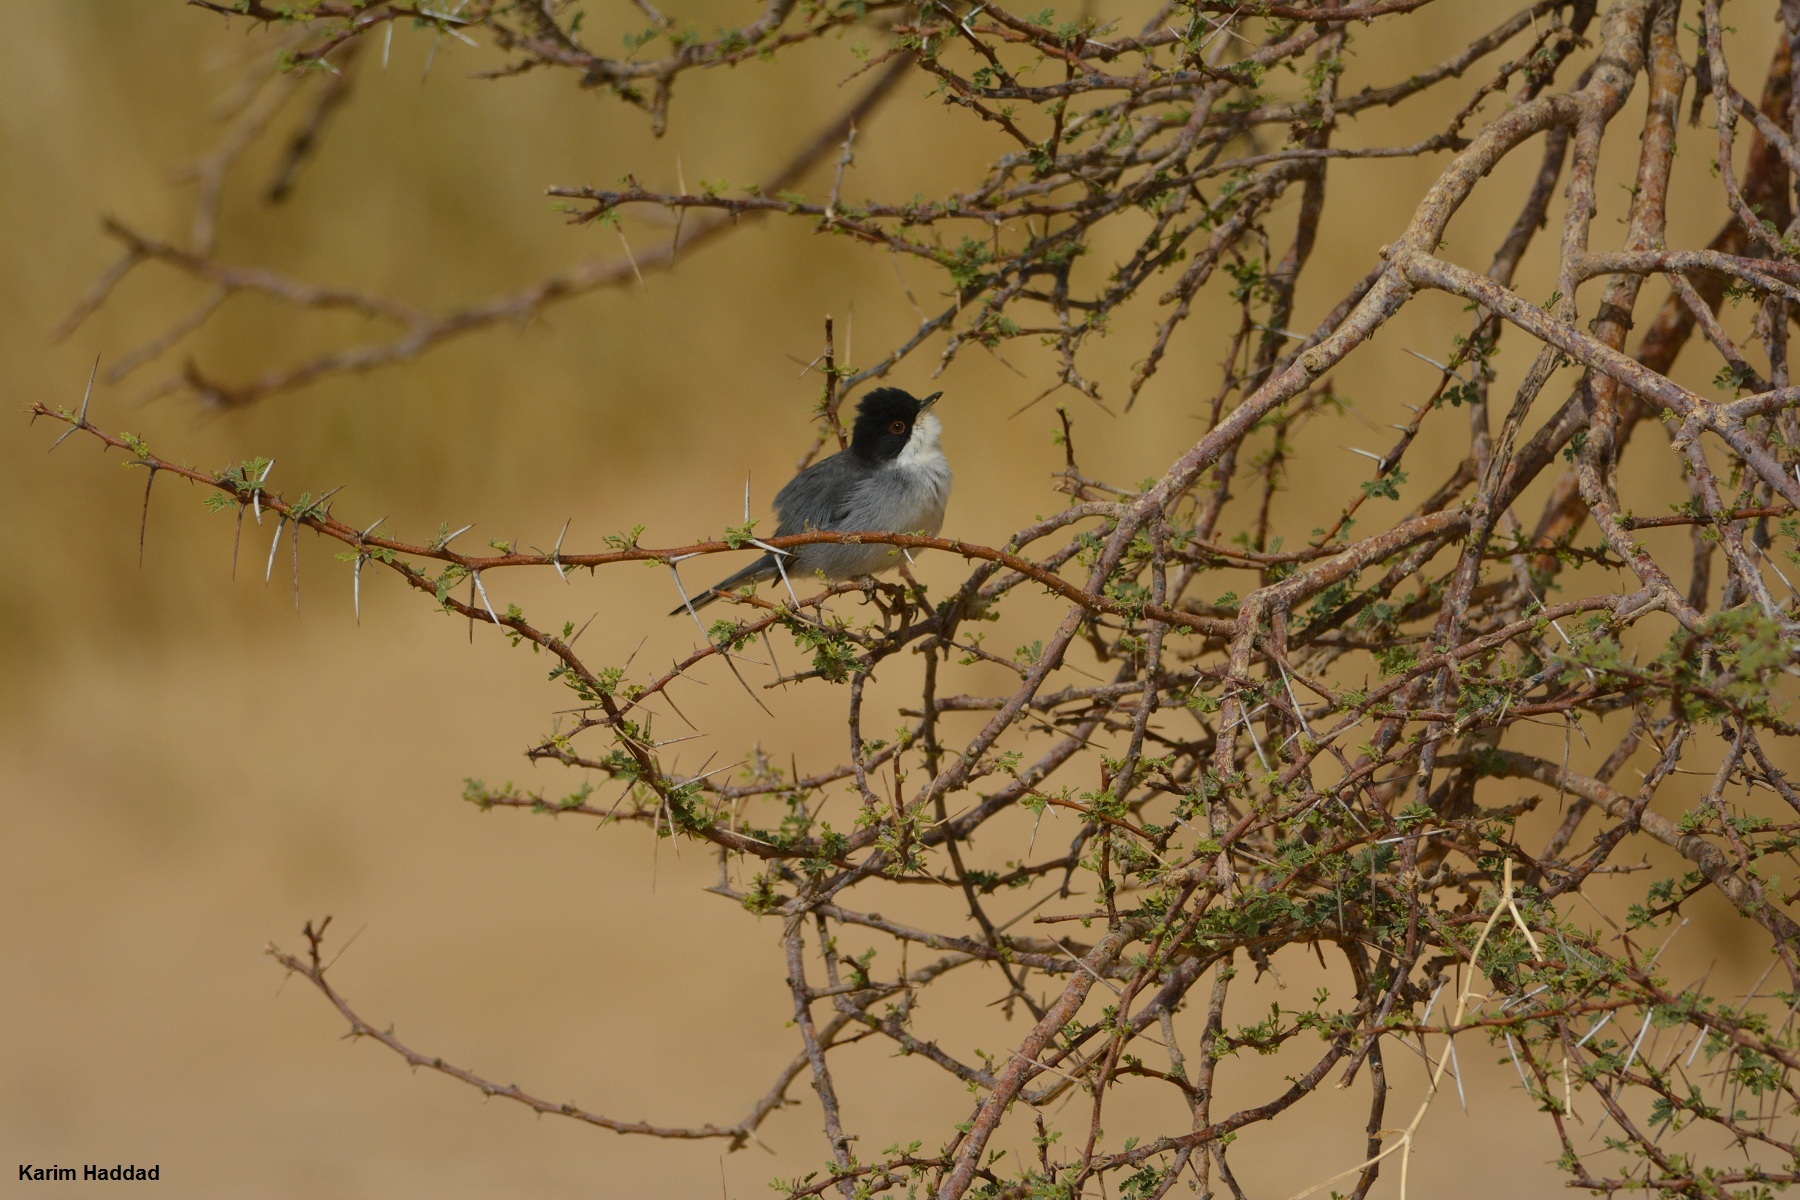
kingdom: Animalia
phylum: Chordata
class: Aves
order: Passeriformes
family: Sylviidae
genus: Curruca
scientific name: Curruca melanocephala
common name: Sardinian warbler
